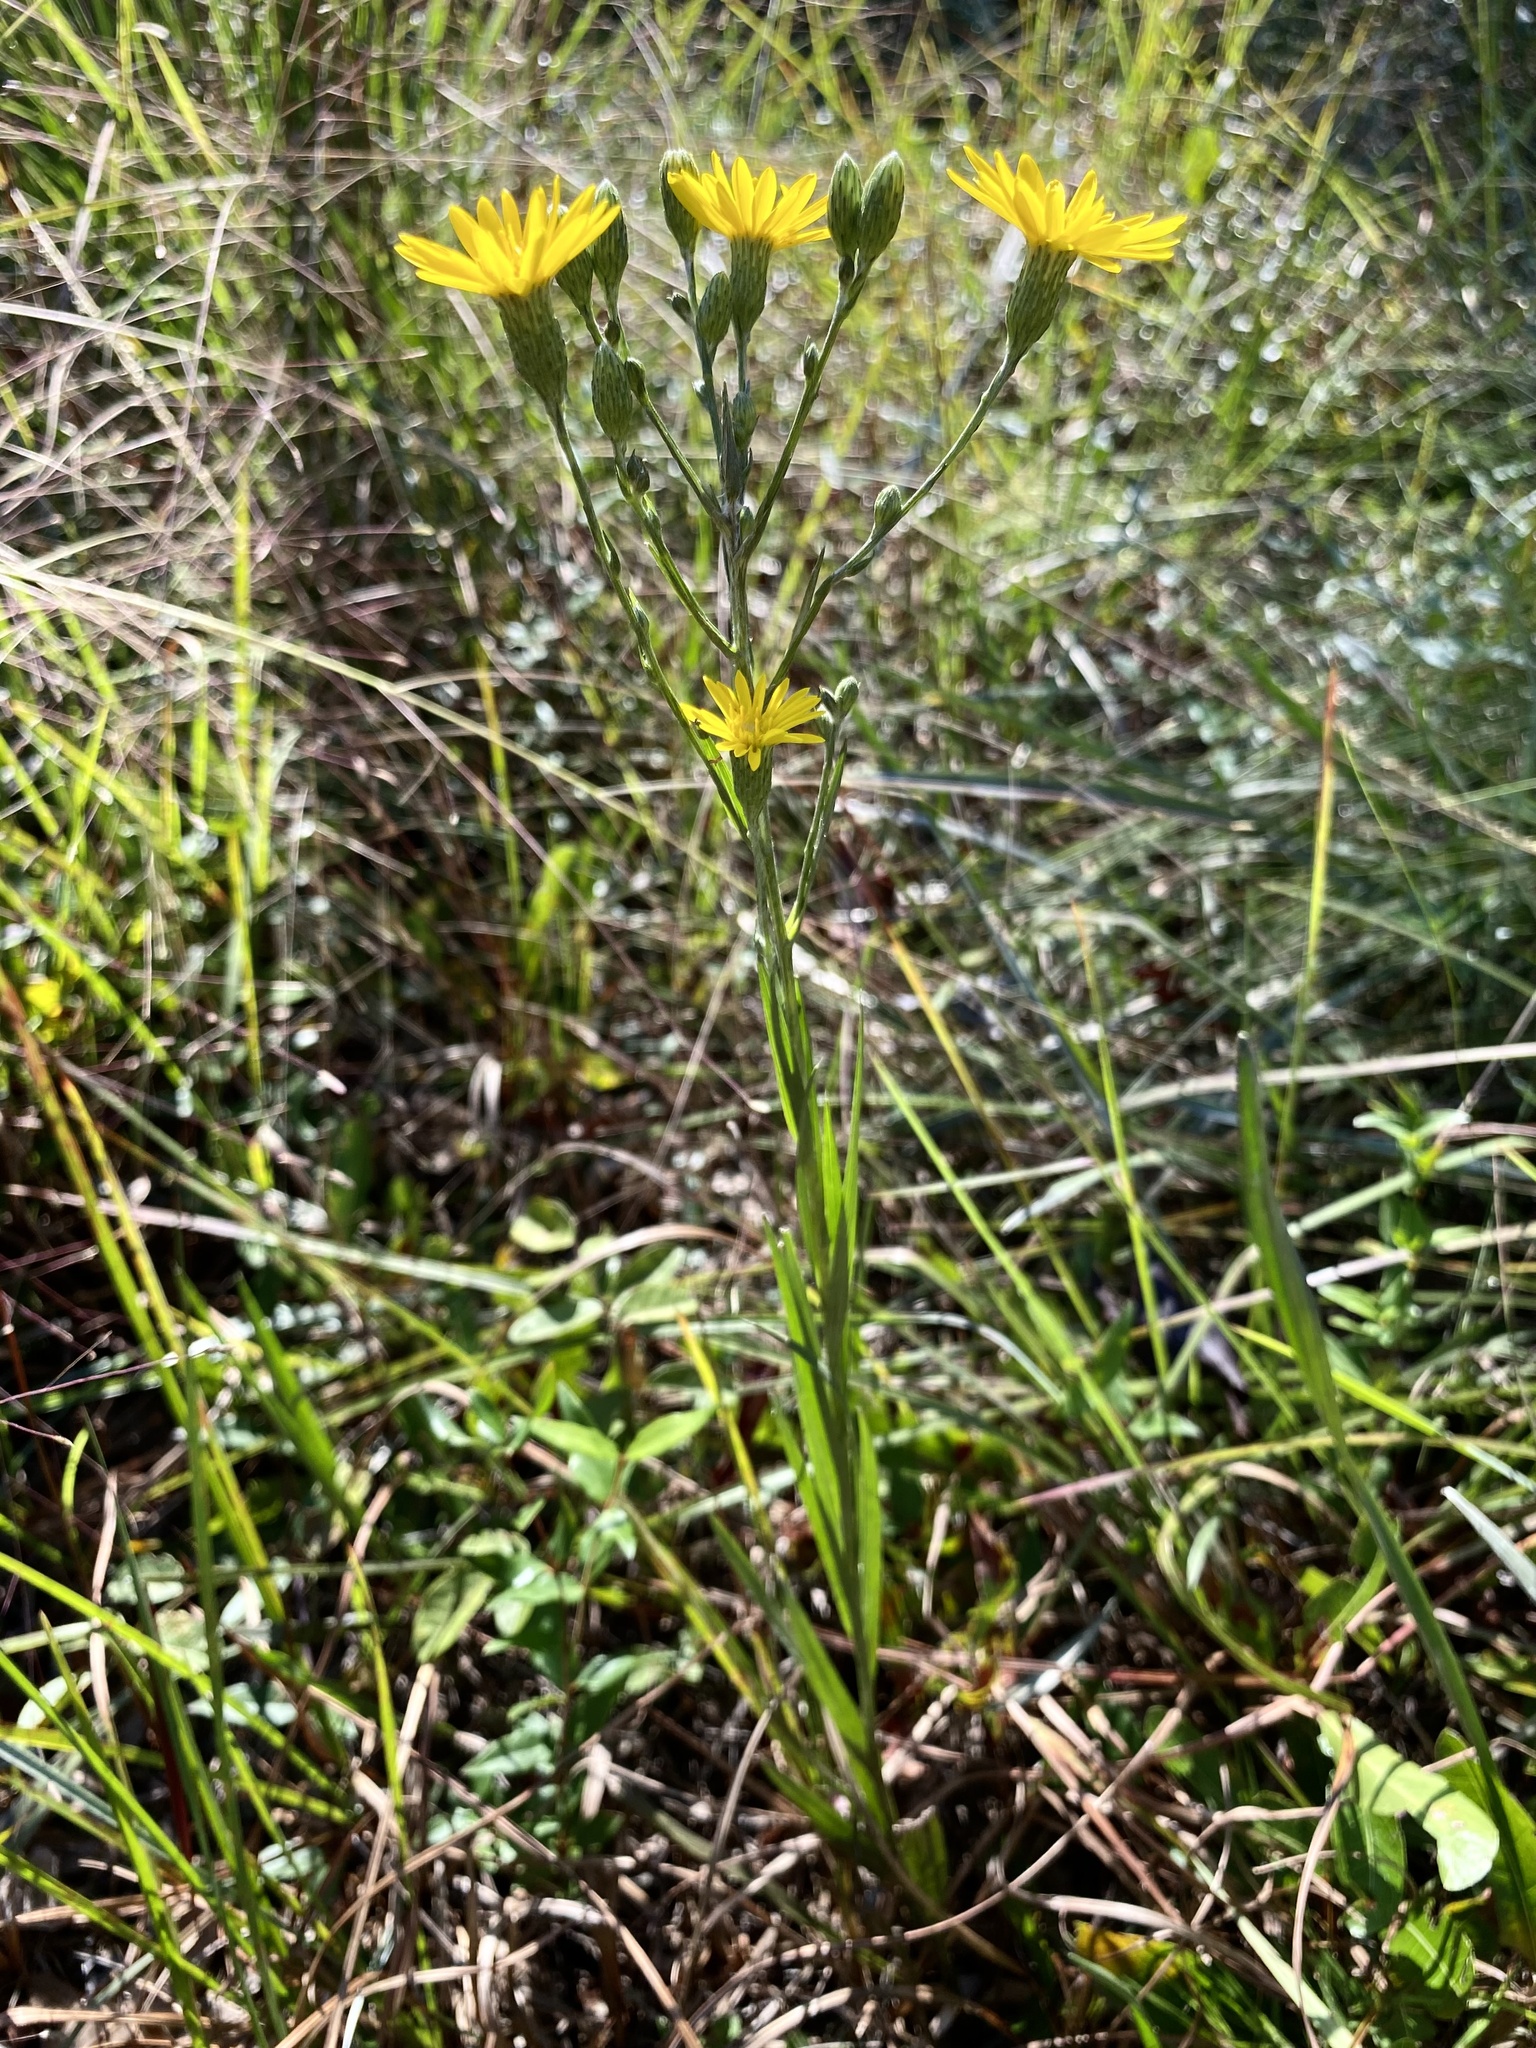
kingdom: Plantae
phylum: Tracheophyta
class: Magnoliopsida
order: Asterales
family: Asteraceae
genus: Pityopsis
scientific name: Pityopsis tracyi
